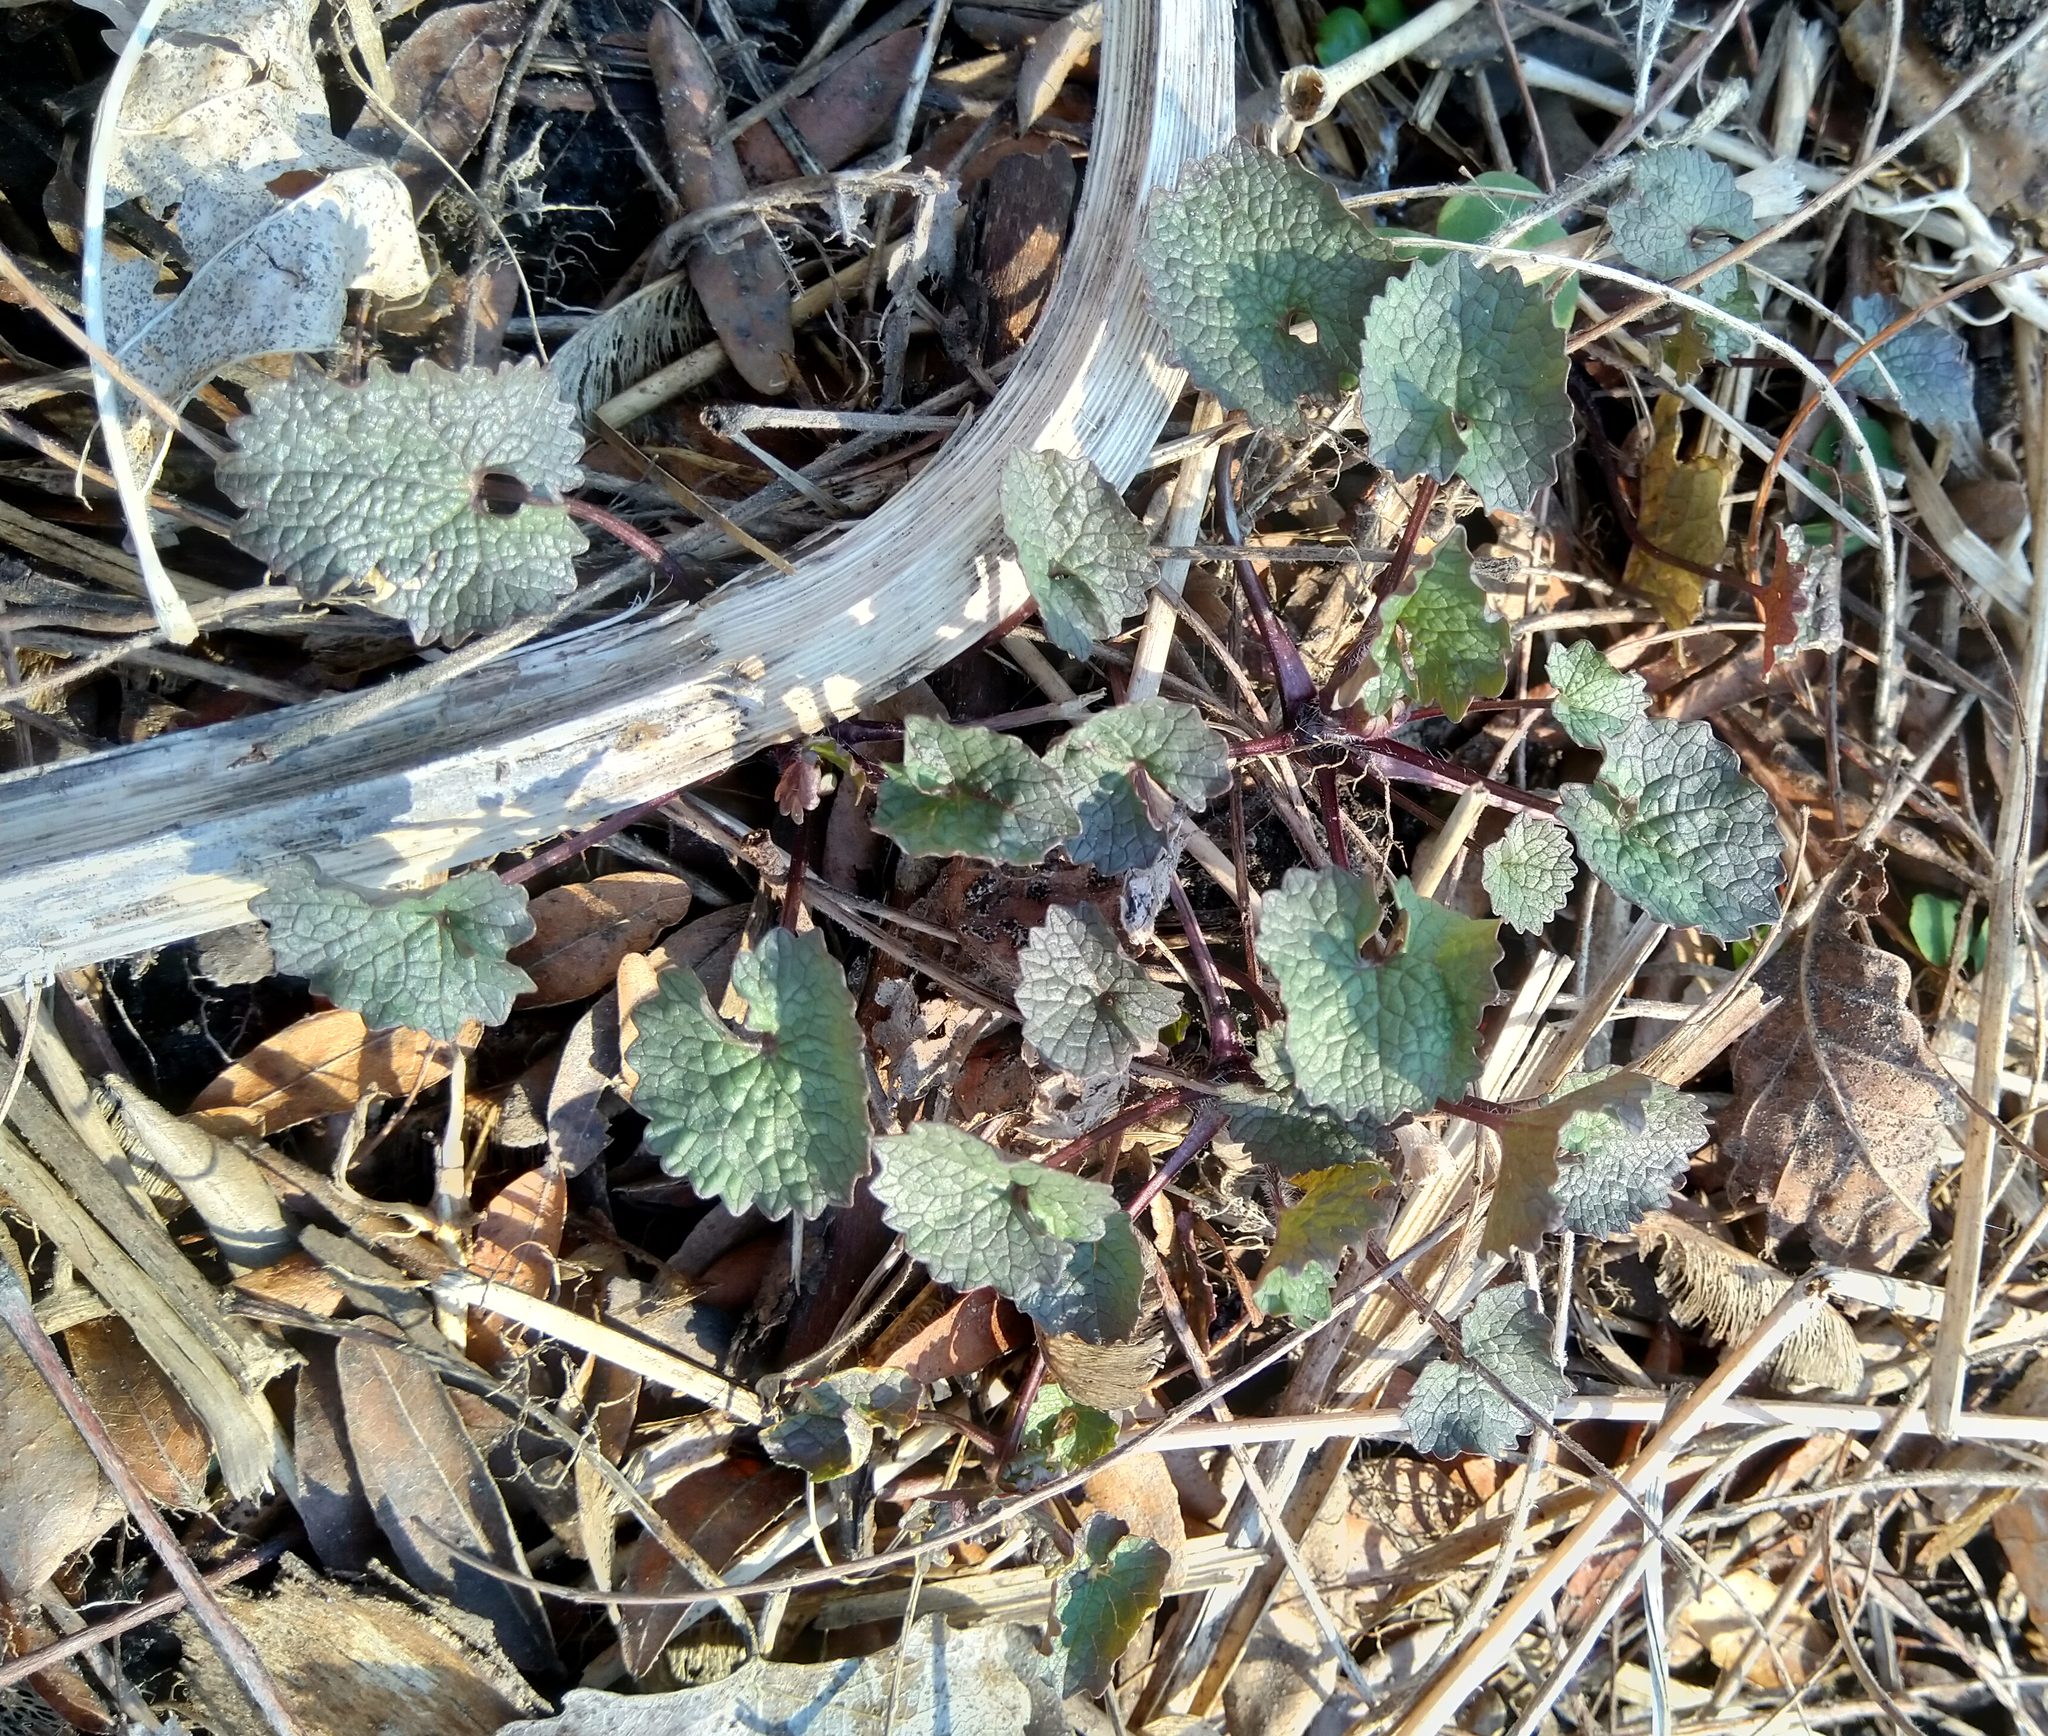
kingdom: Plantae
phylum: Tracheophyta
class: Magnoliopsida
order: Brassicales
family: Brassicaceae
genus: Alliaria
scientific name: Alliaria petiolata
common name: Garlic mustard
